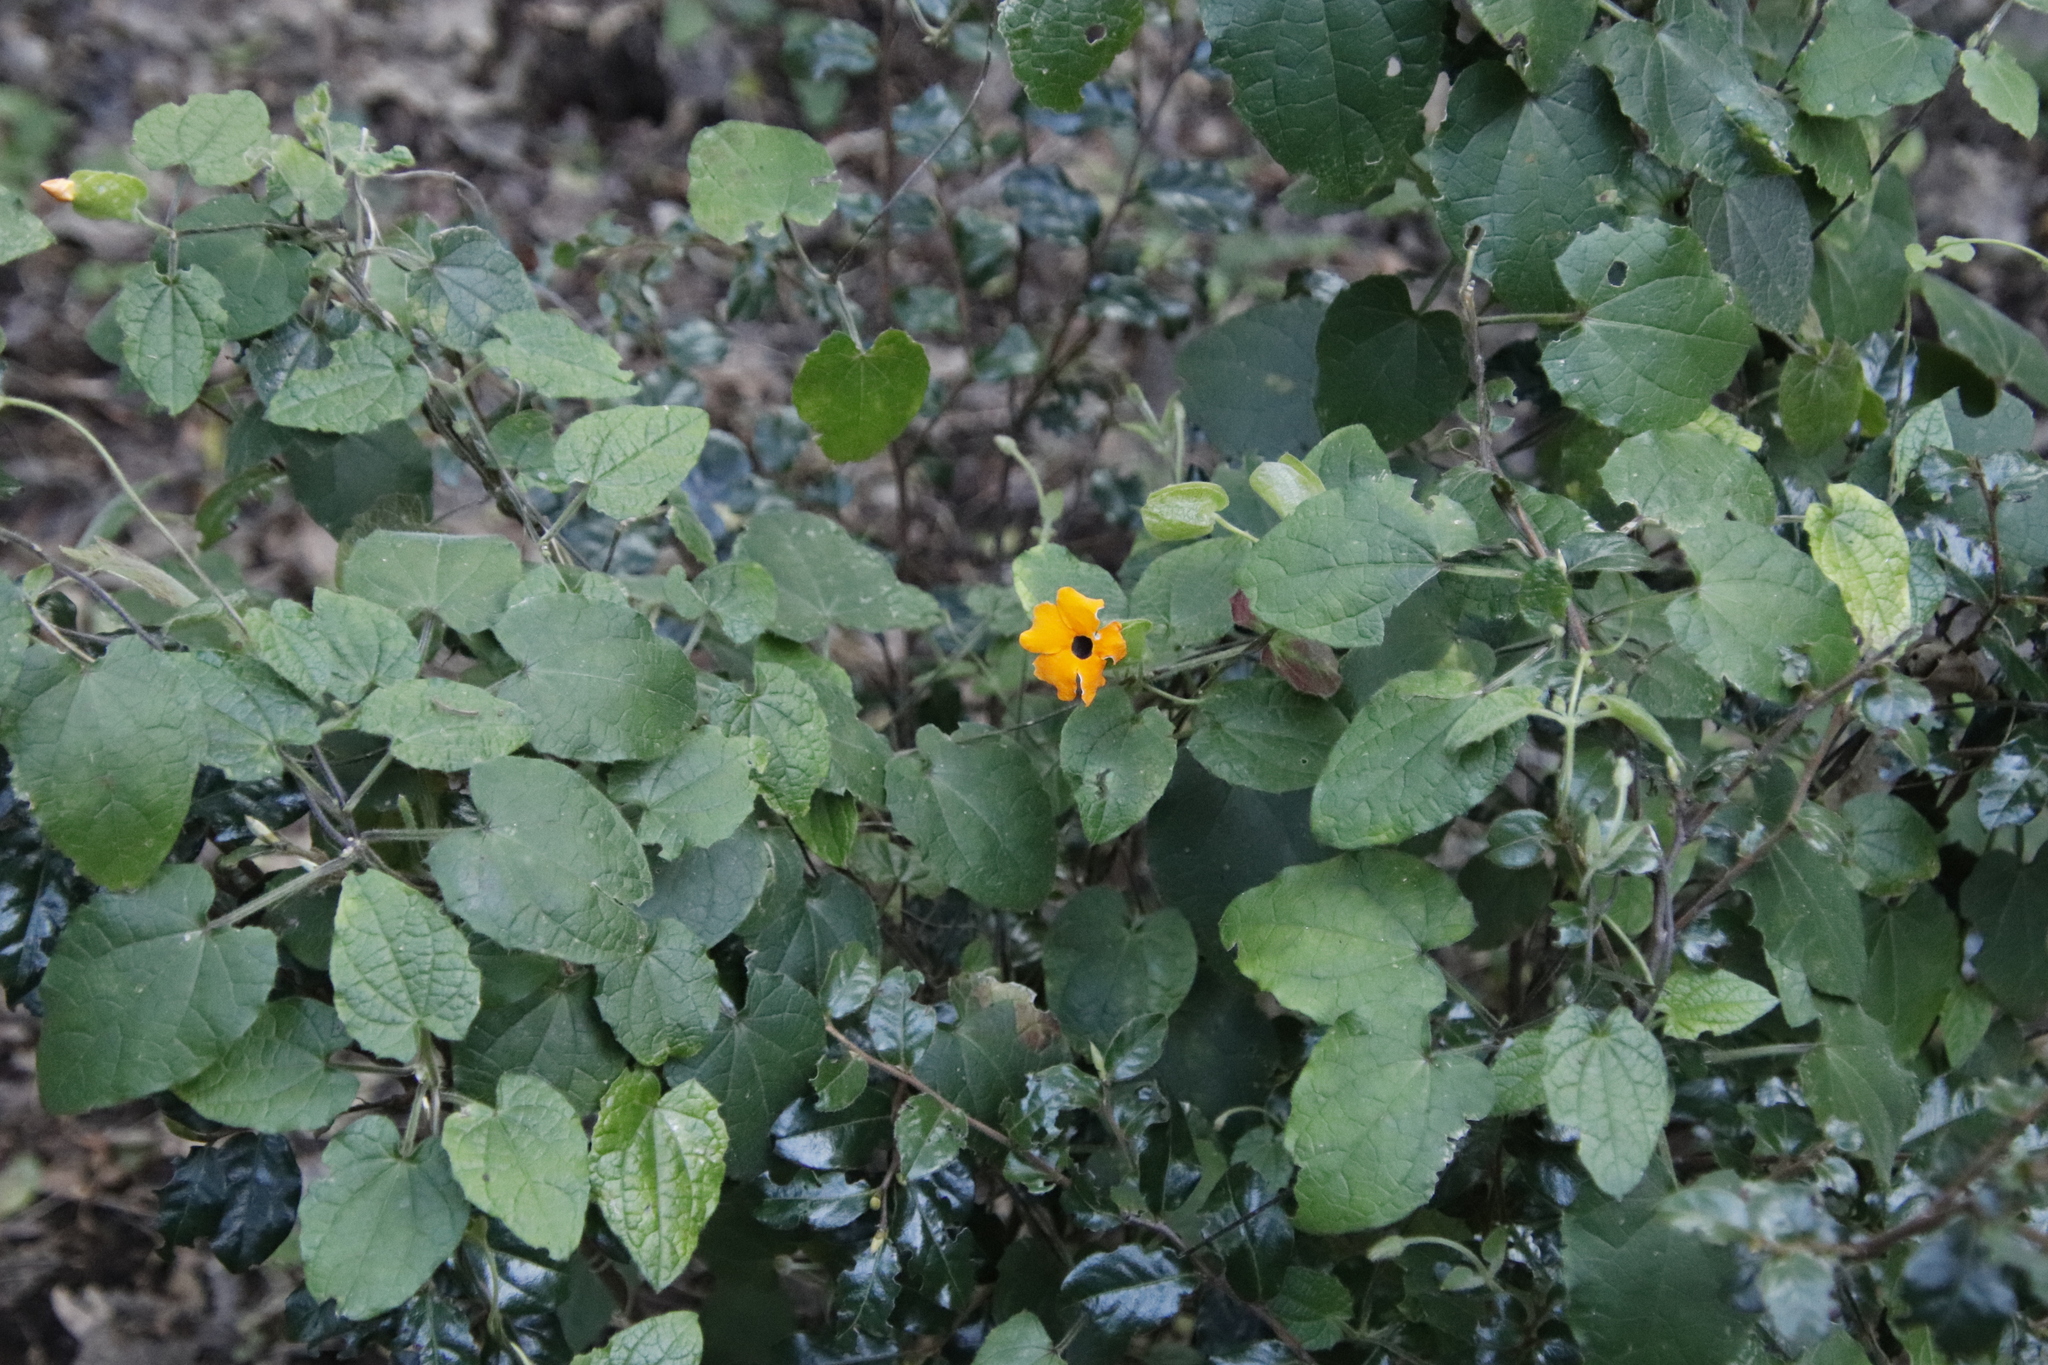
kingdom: Plantae
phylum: Tracheophyta
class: Magnoliopsida
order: Lamiales
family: Acanthaceae
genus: Thunbergia
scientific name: Thunbergia alata
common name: Blackeyed susan vine
